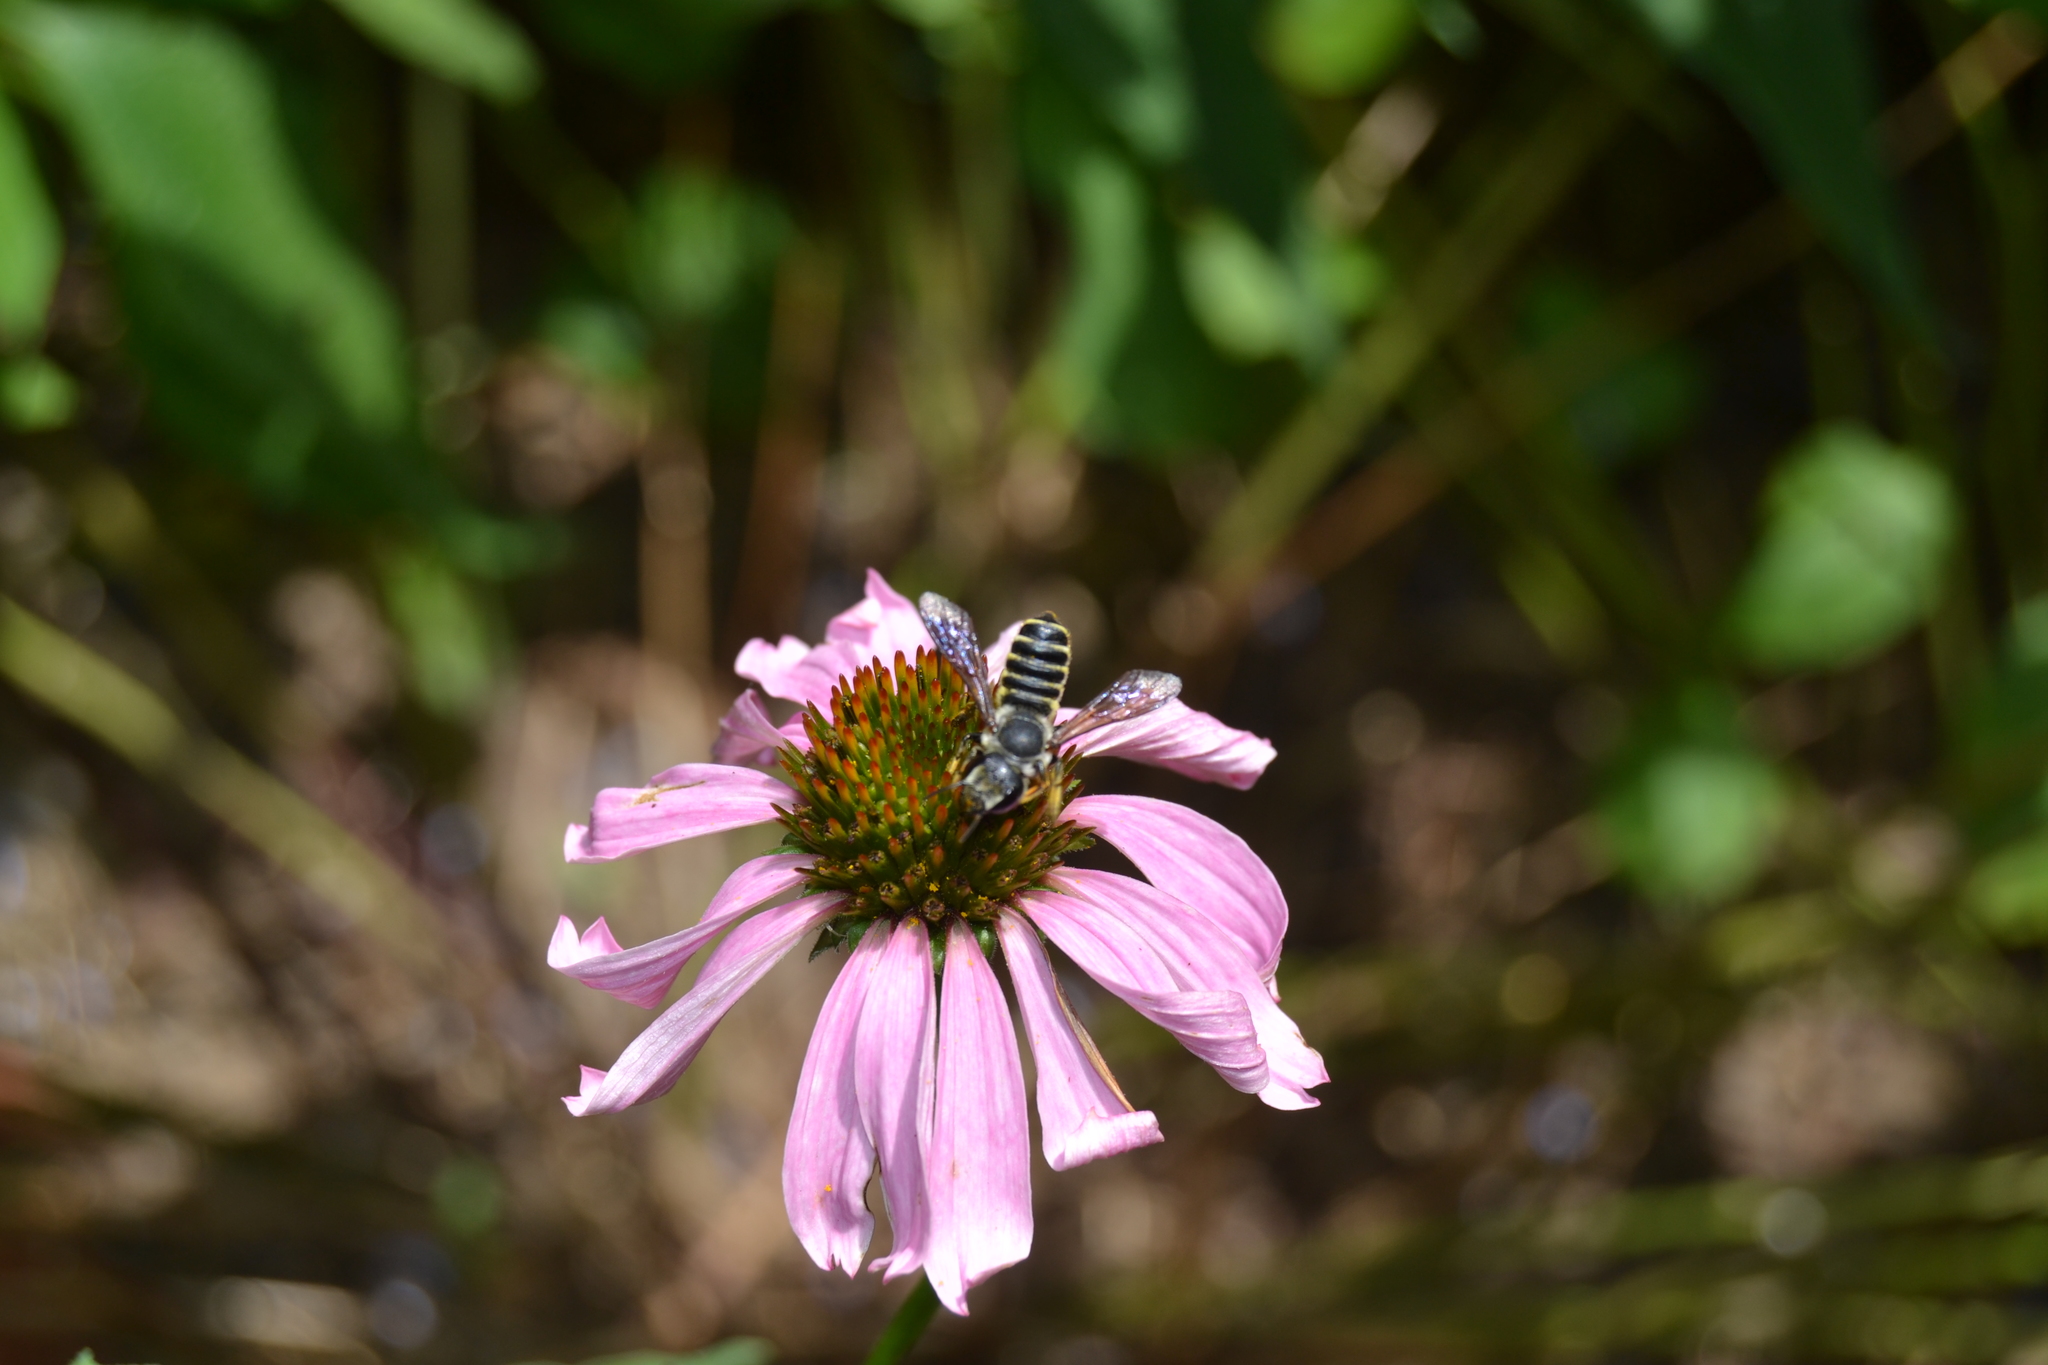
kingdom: Animalia
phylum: Arthropoda
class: Insecta
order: Hymenoptera
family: Megachilidae
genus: Megachile
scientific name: Megachile
